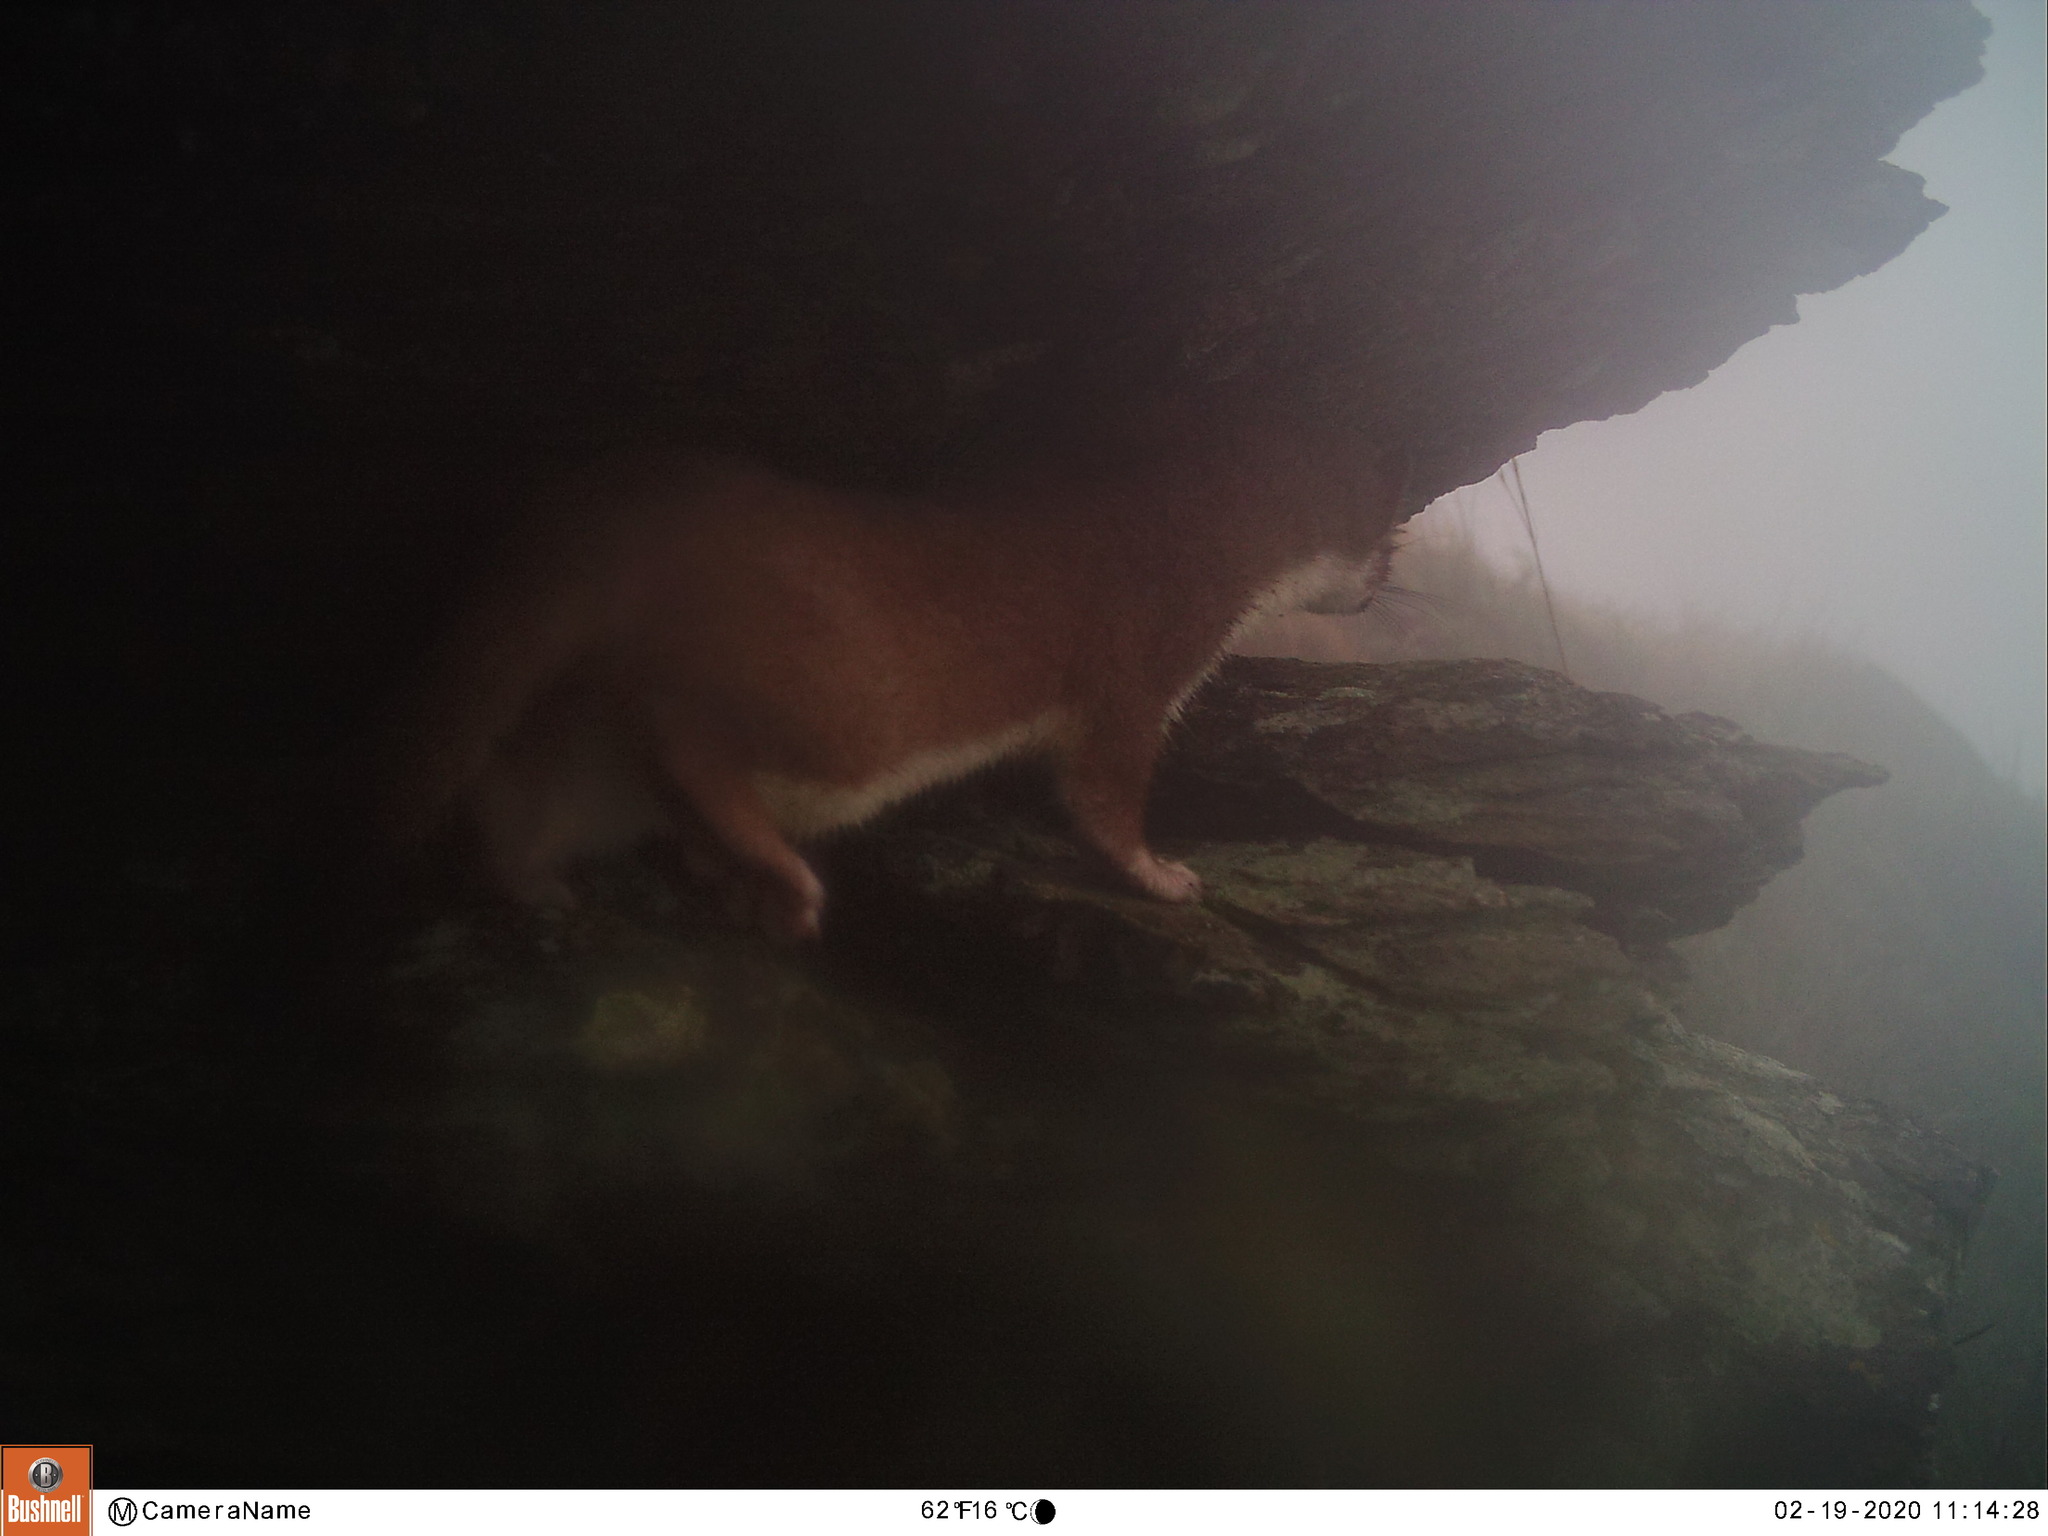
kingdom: Animalia
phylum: Chordata
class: Mammalia
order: Carnivora
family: Mustelidae
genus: Mustela
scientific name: Mustela erminea
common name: Stoat
